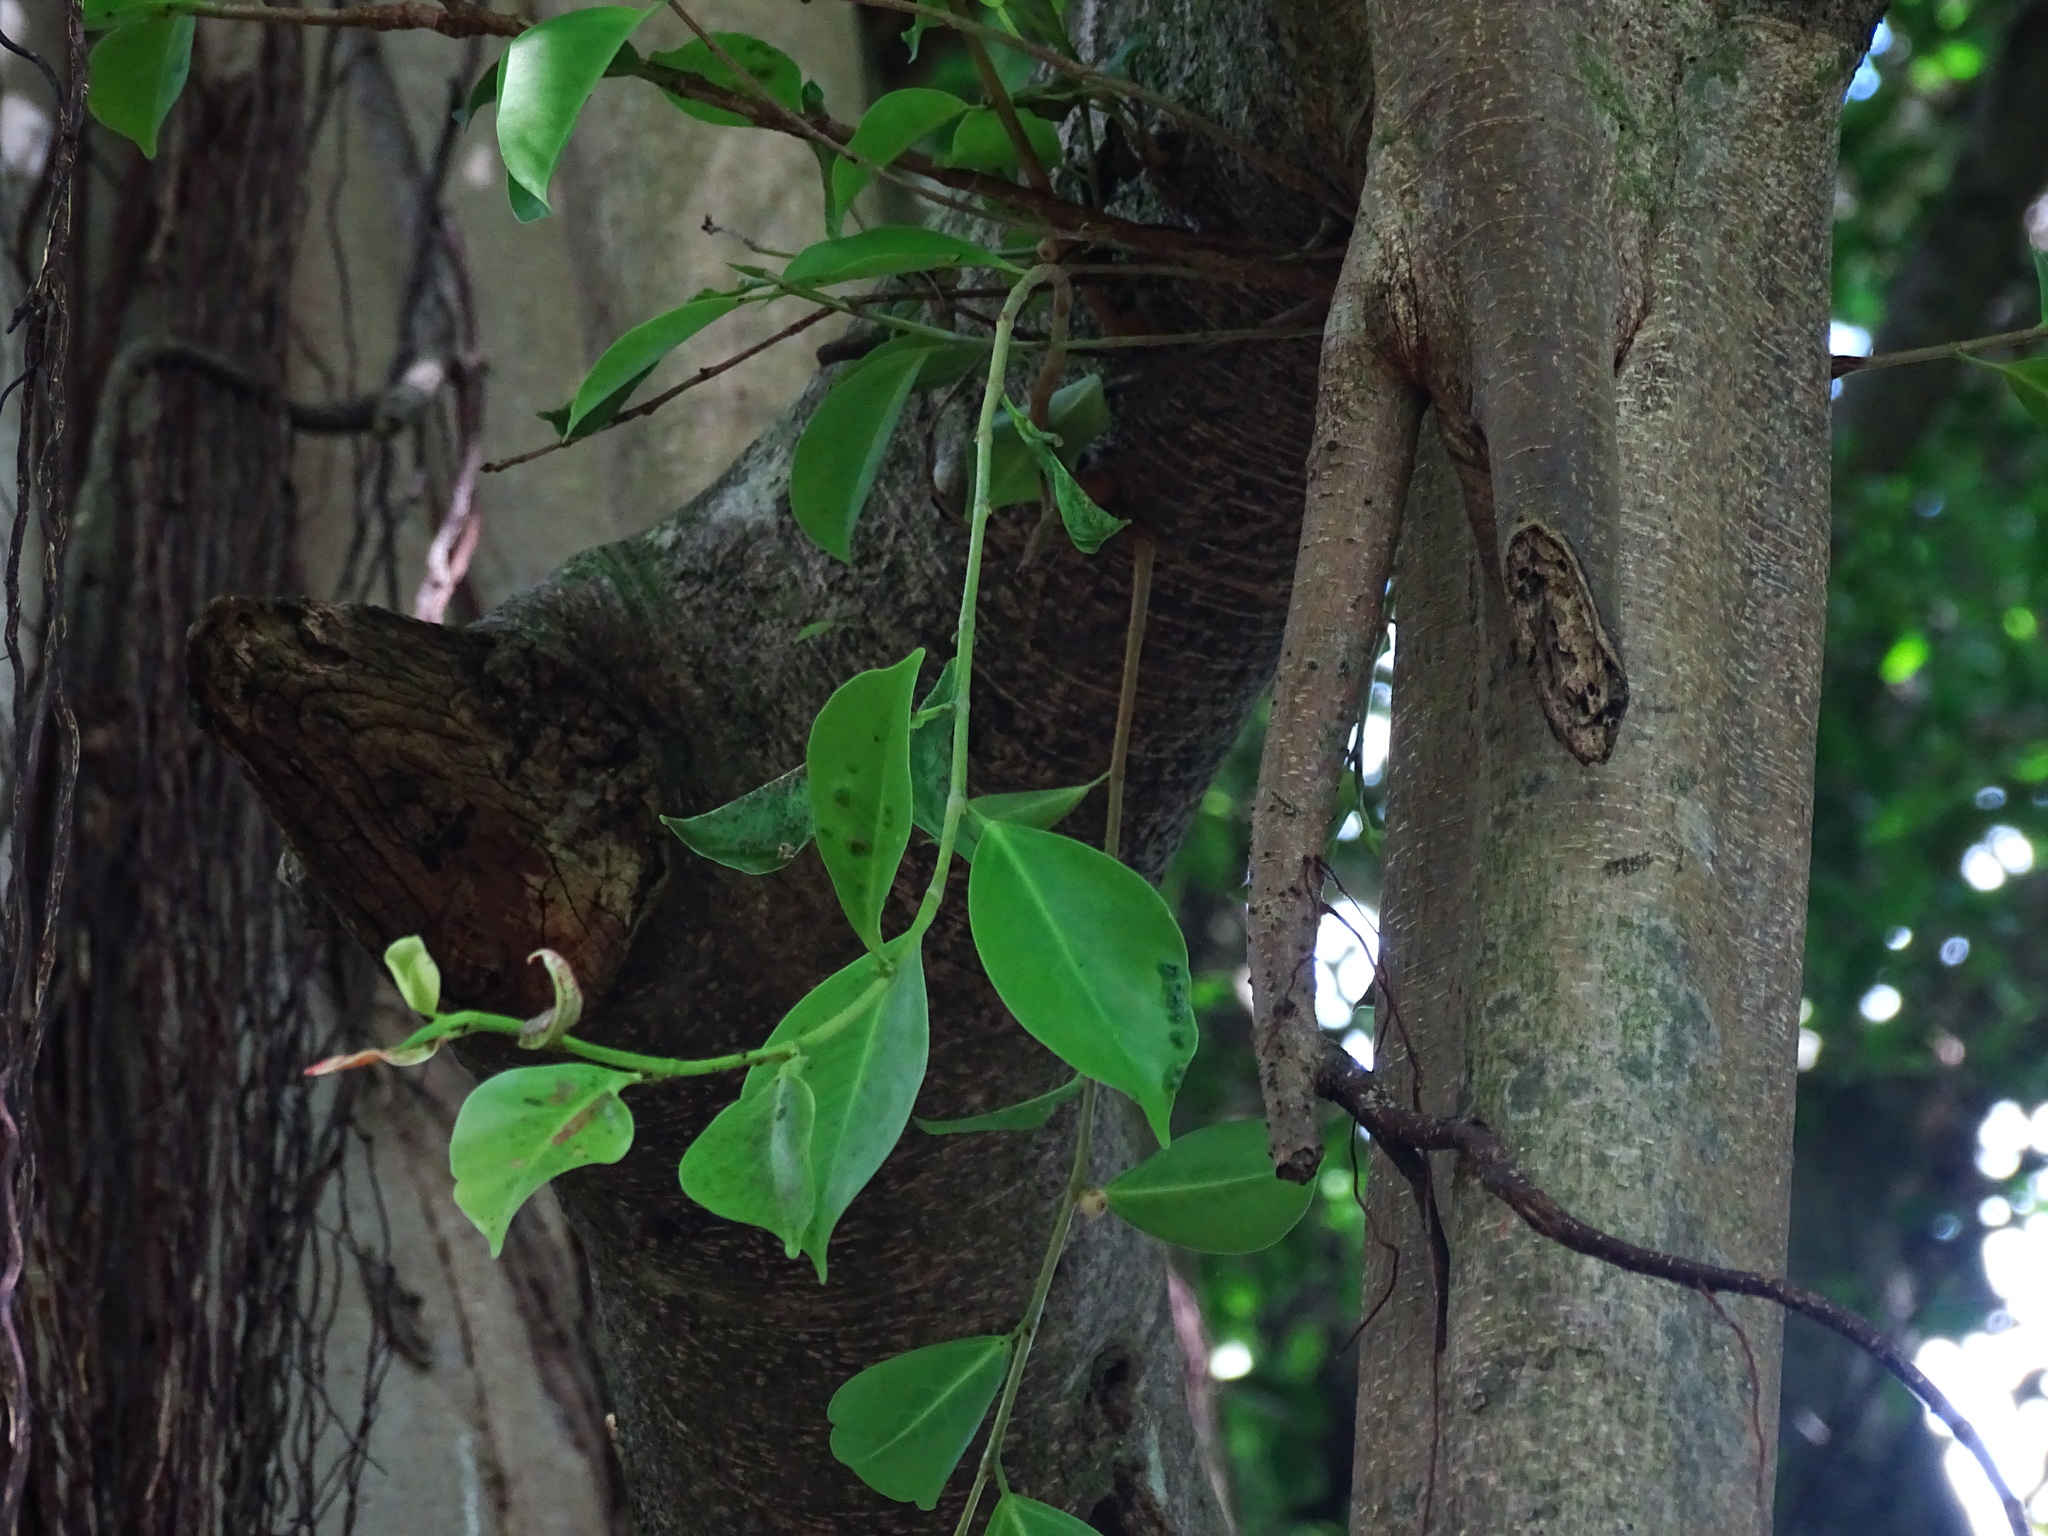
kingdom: Plantae
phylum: Tracheophyta
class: Magnoliopsida
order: Rosales
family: Moraceae
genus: Ficus
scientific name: Ficus microcarpa
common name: Chinese banyan
